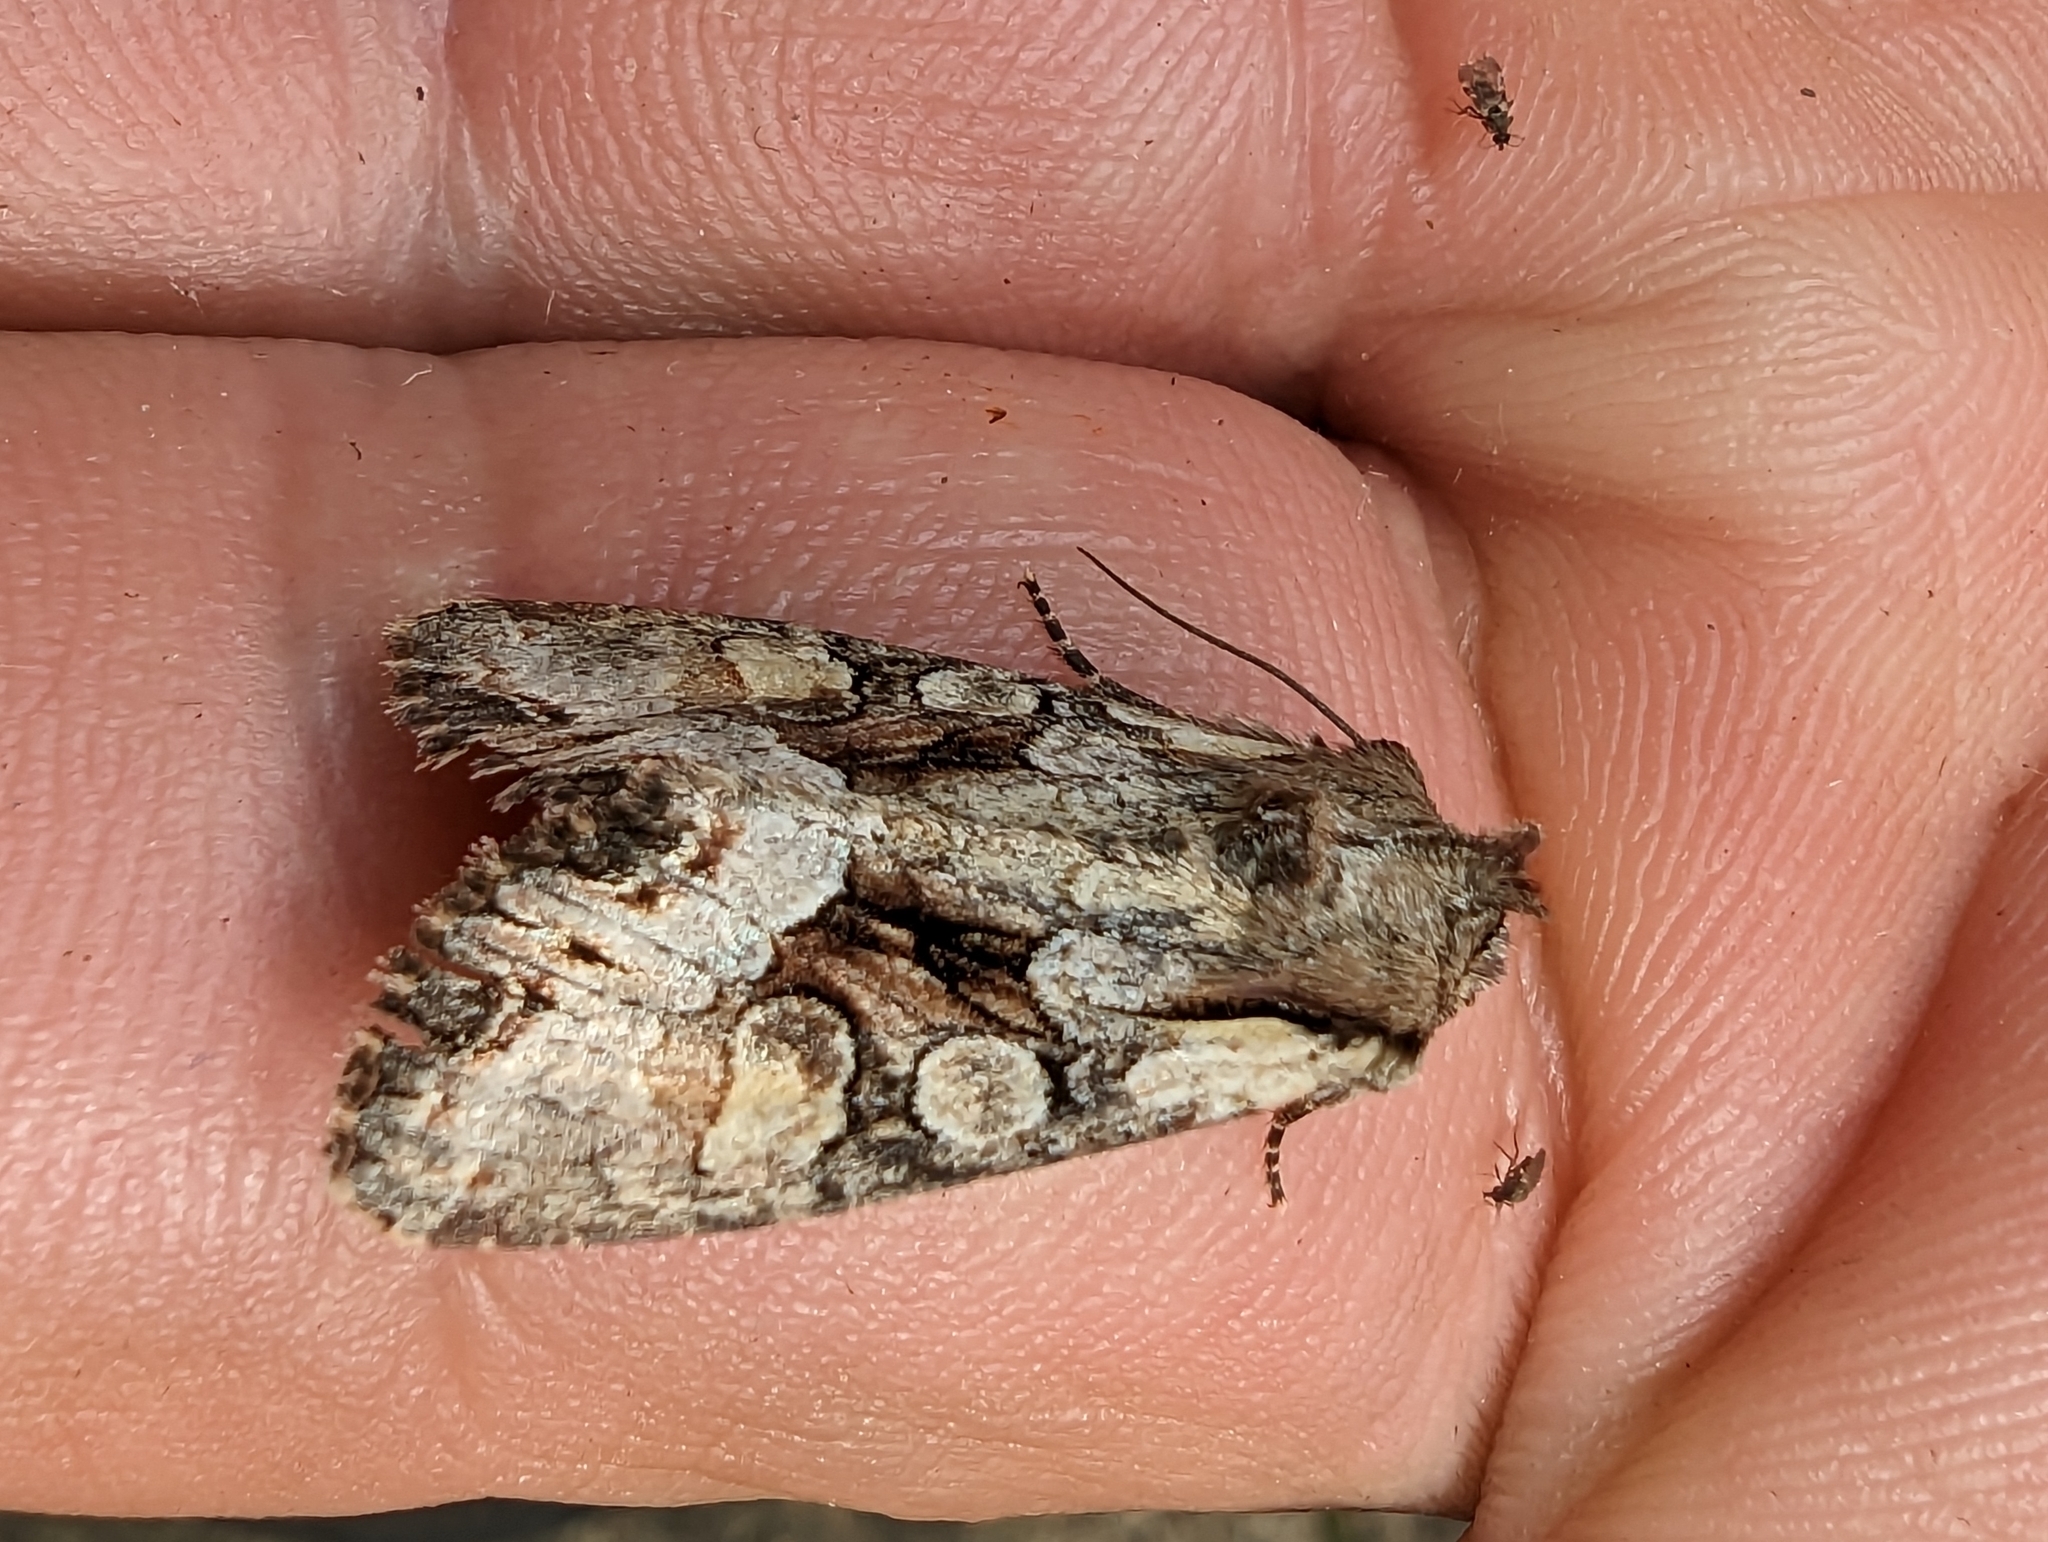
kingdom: Animalia
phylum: Arthropoda
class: Insecta
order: Lepidoptera
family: Noctuidae
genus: Lacanobia
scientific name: Lacanobia w-latinum
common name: Light brocade
